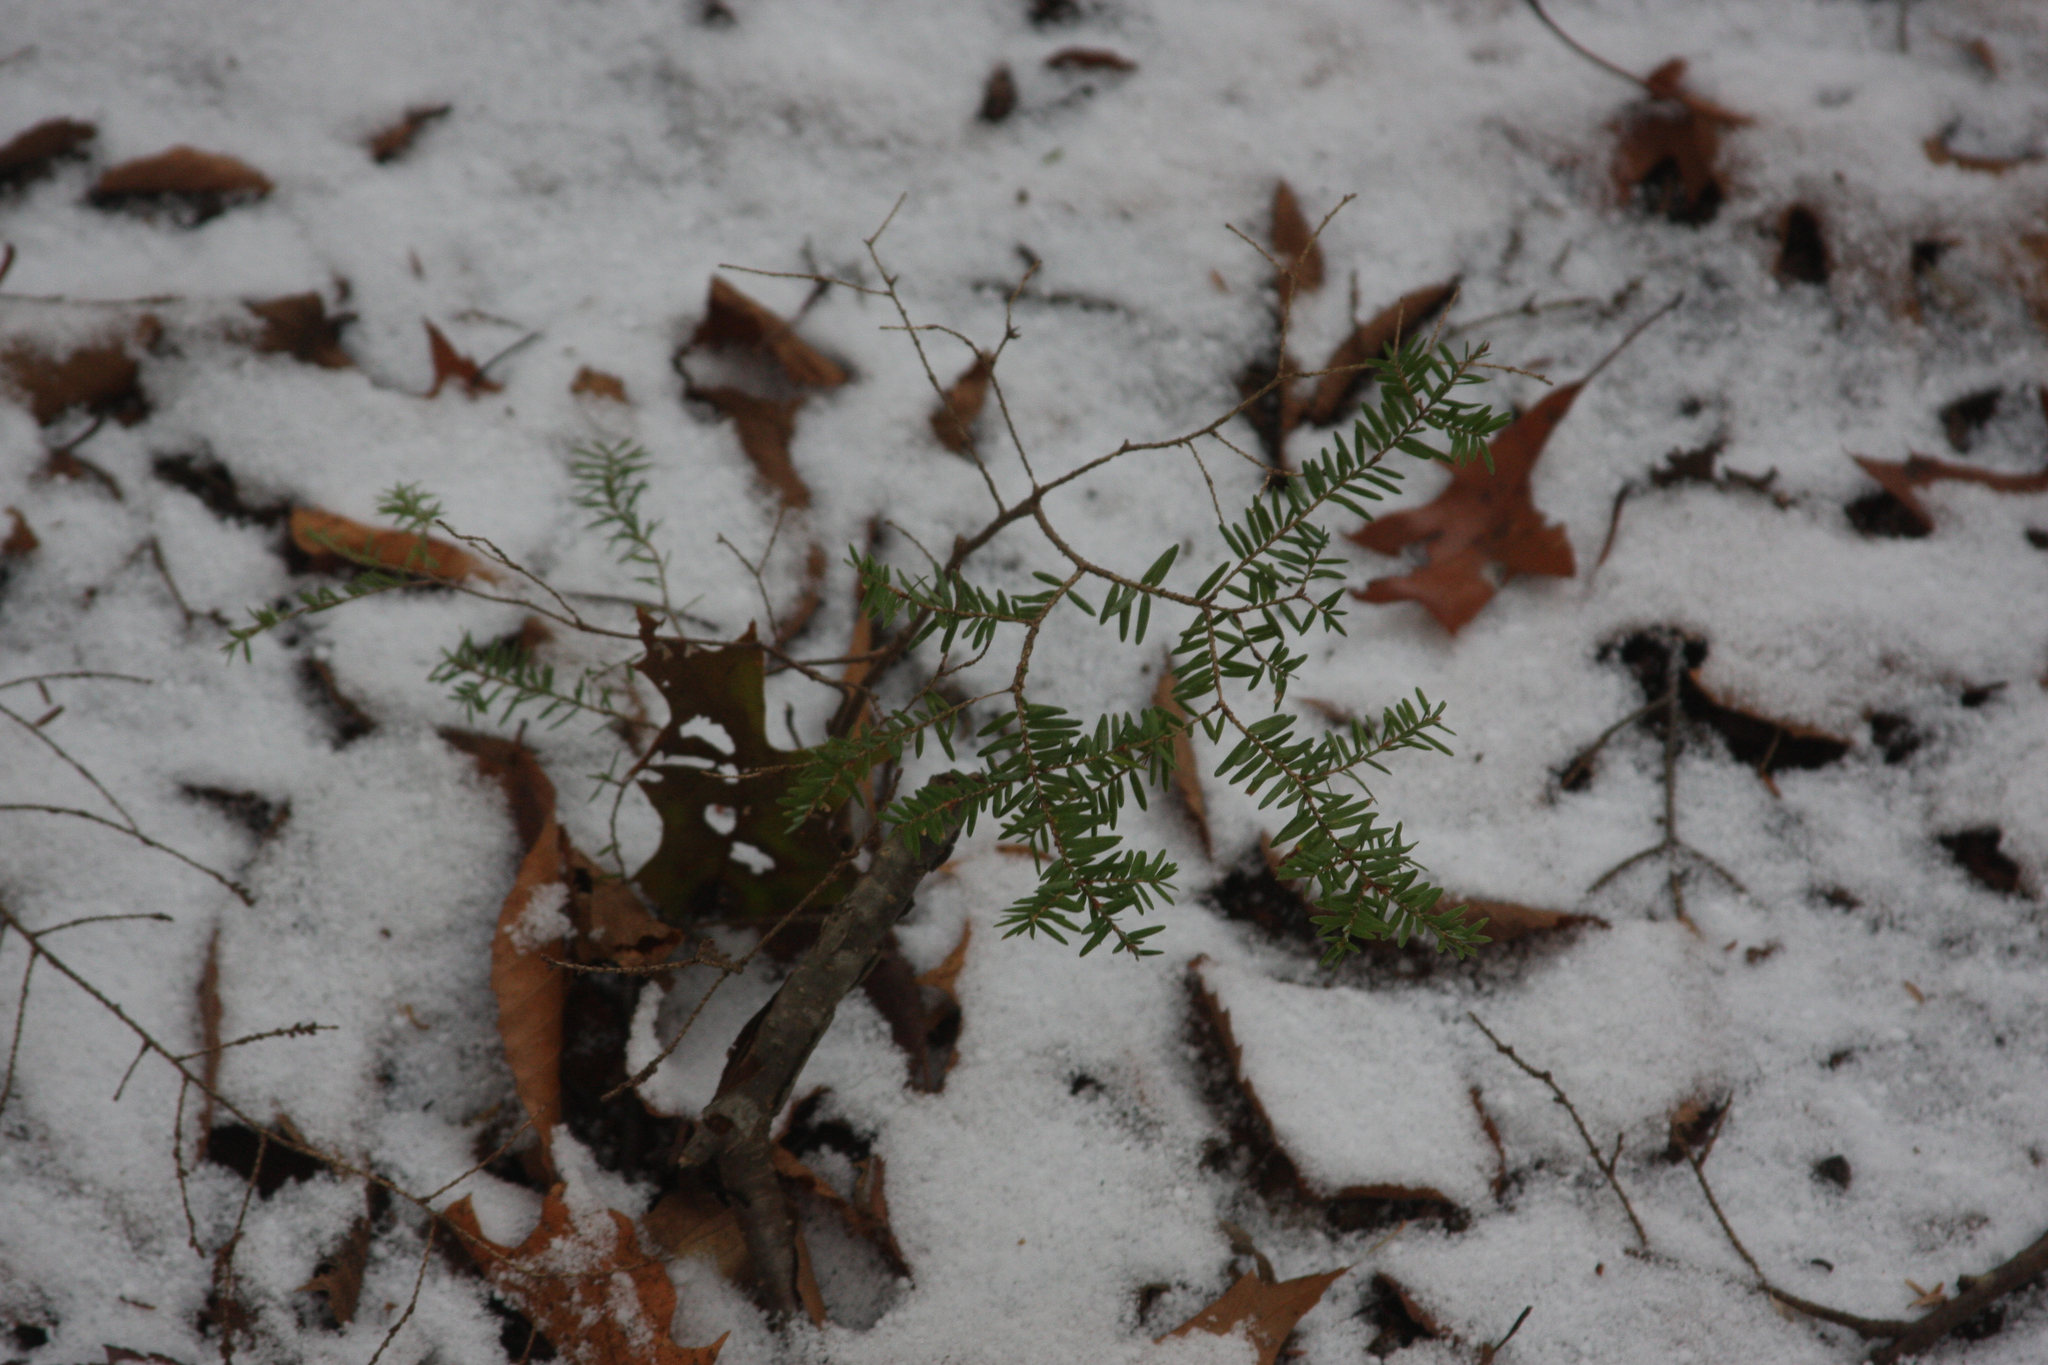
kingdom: Plantae
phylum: Tracheophyta
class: Pinopsida
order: Pinales
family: Pinaceae
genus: Tsuga
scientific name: Tsuga canadensis
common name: Eastern hemlock
